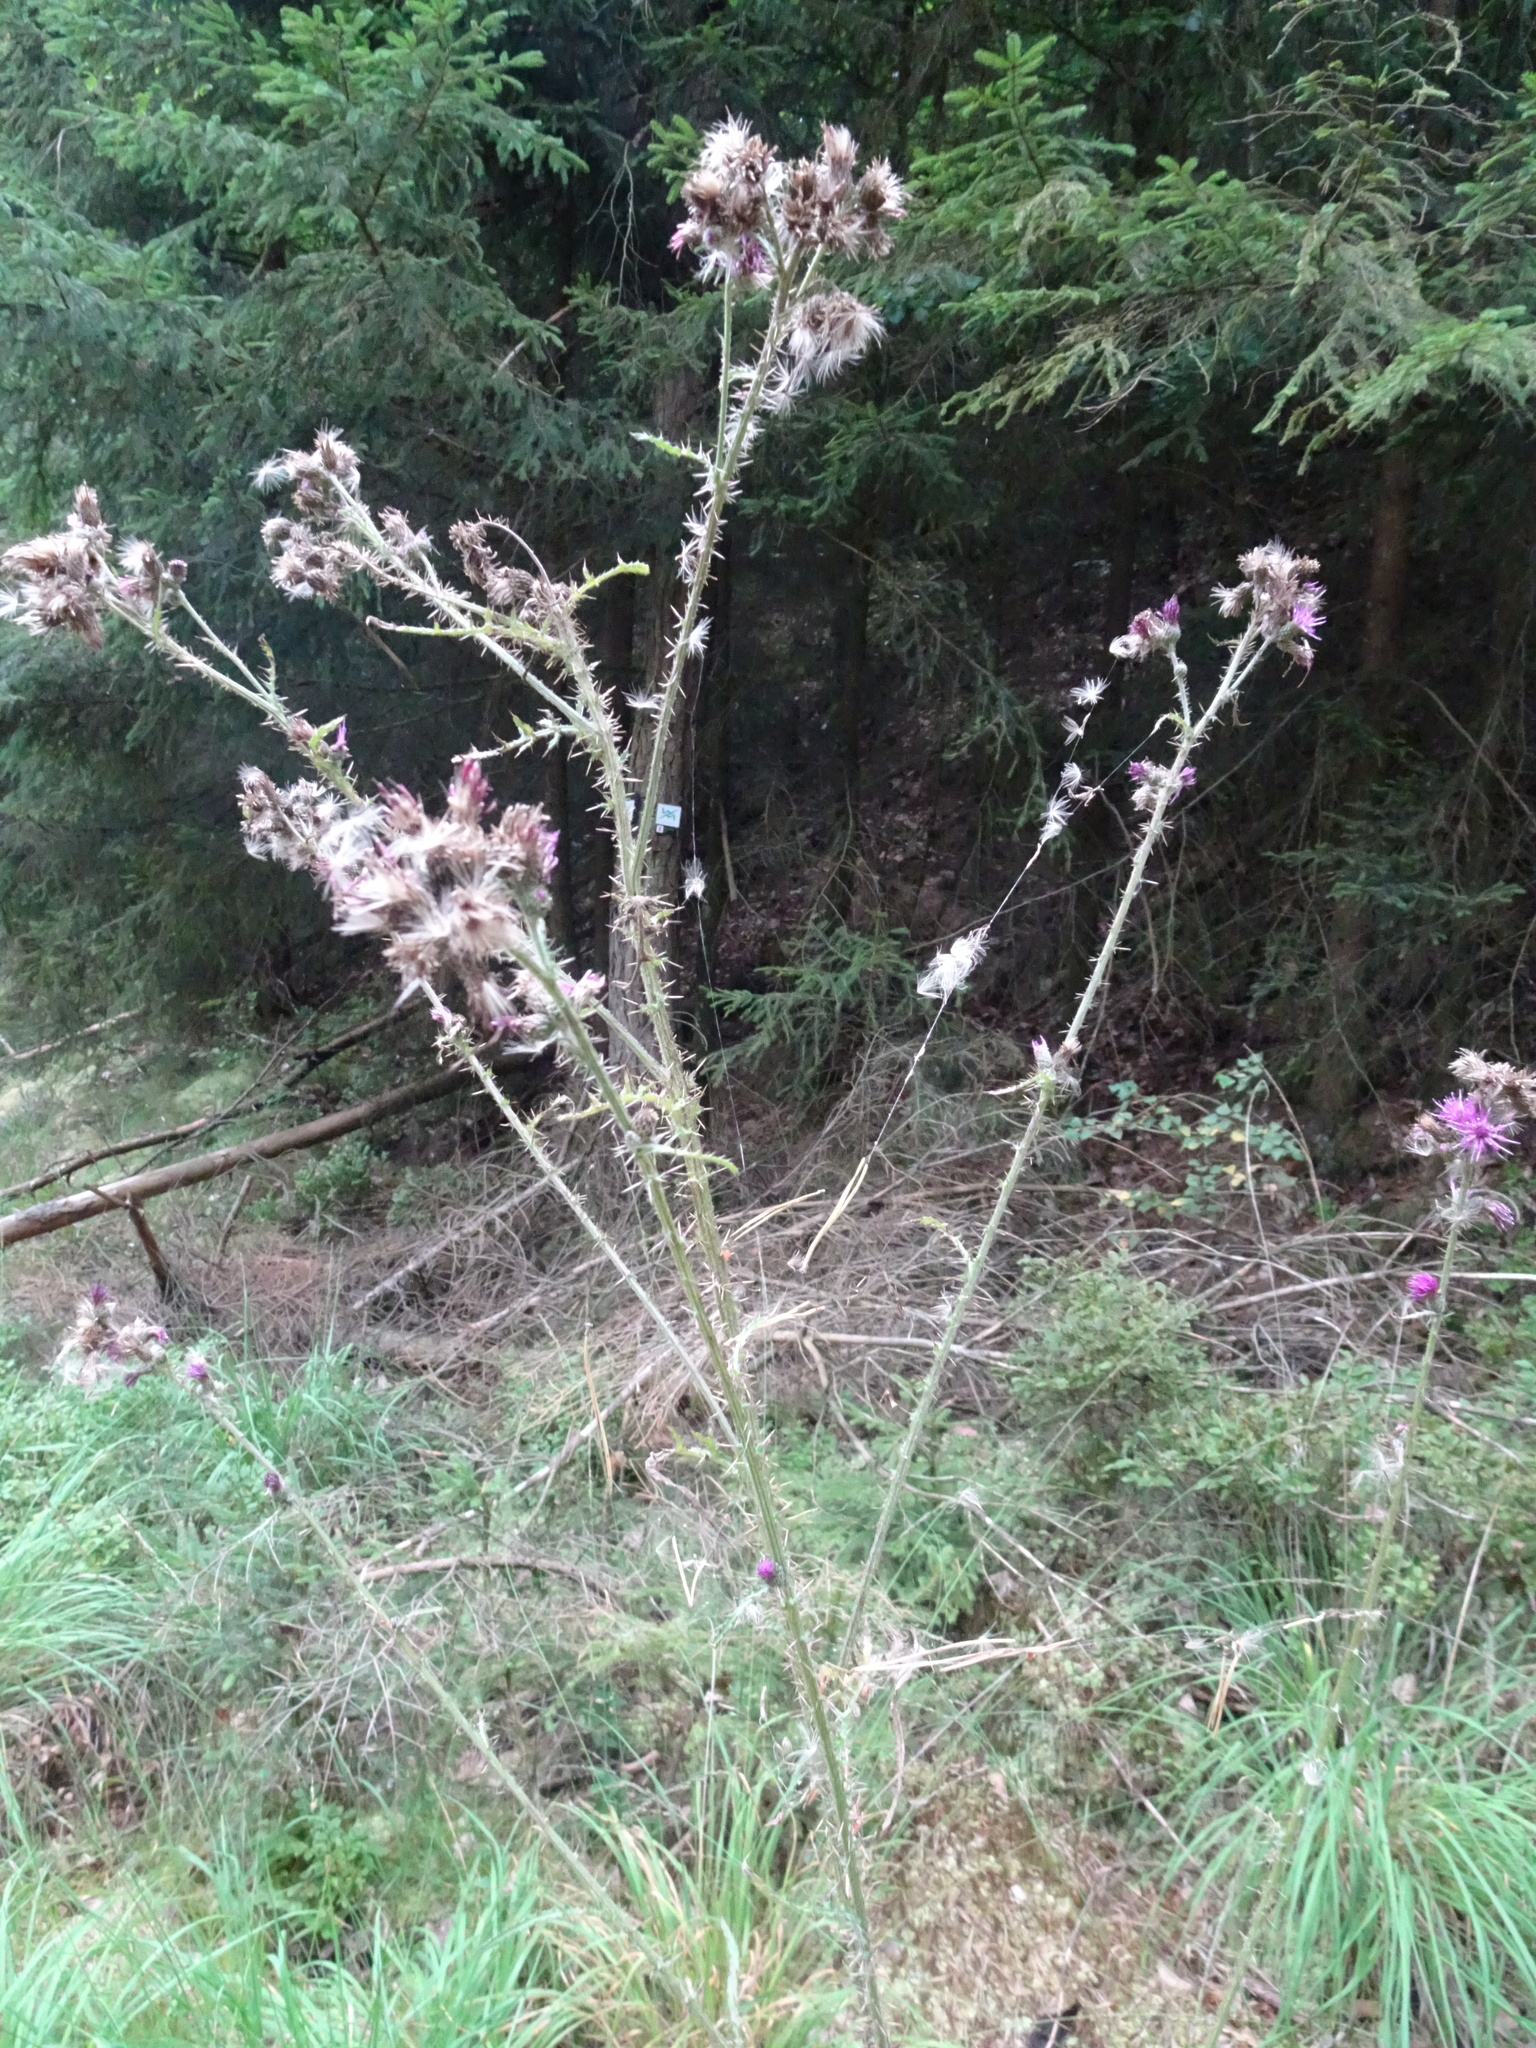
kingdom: Plantae
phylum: Tracheophyta
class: Magnoliopsida
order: Asterales
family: Asteraceae
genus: Cirsium
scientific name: Cirsium palustre
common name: Marsh thistle
